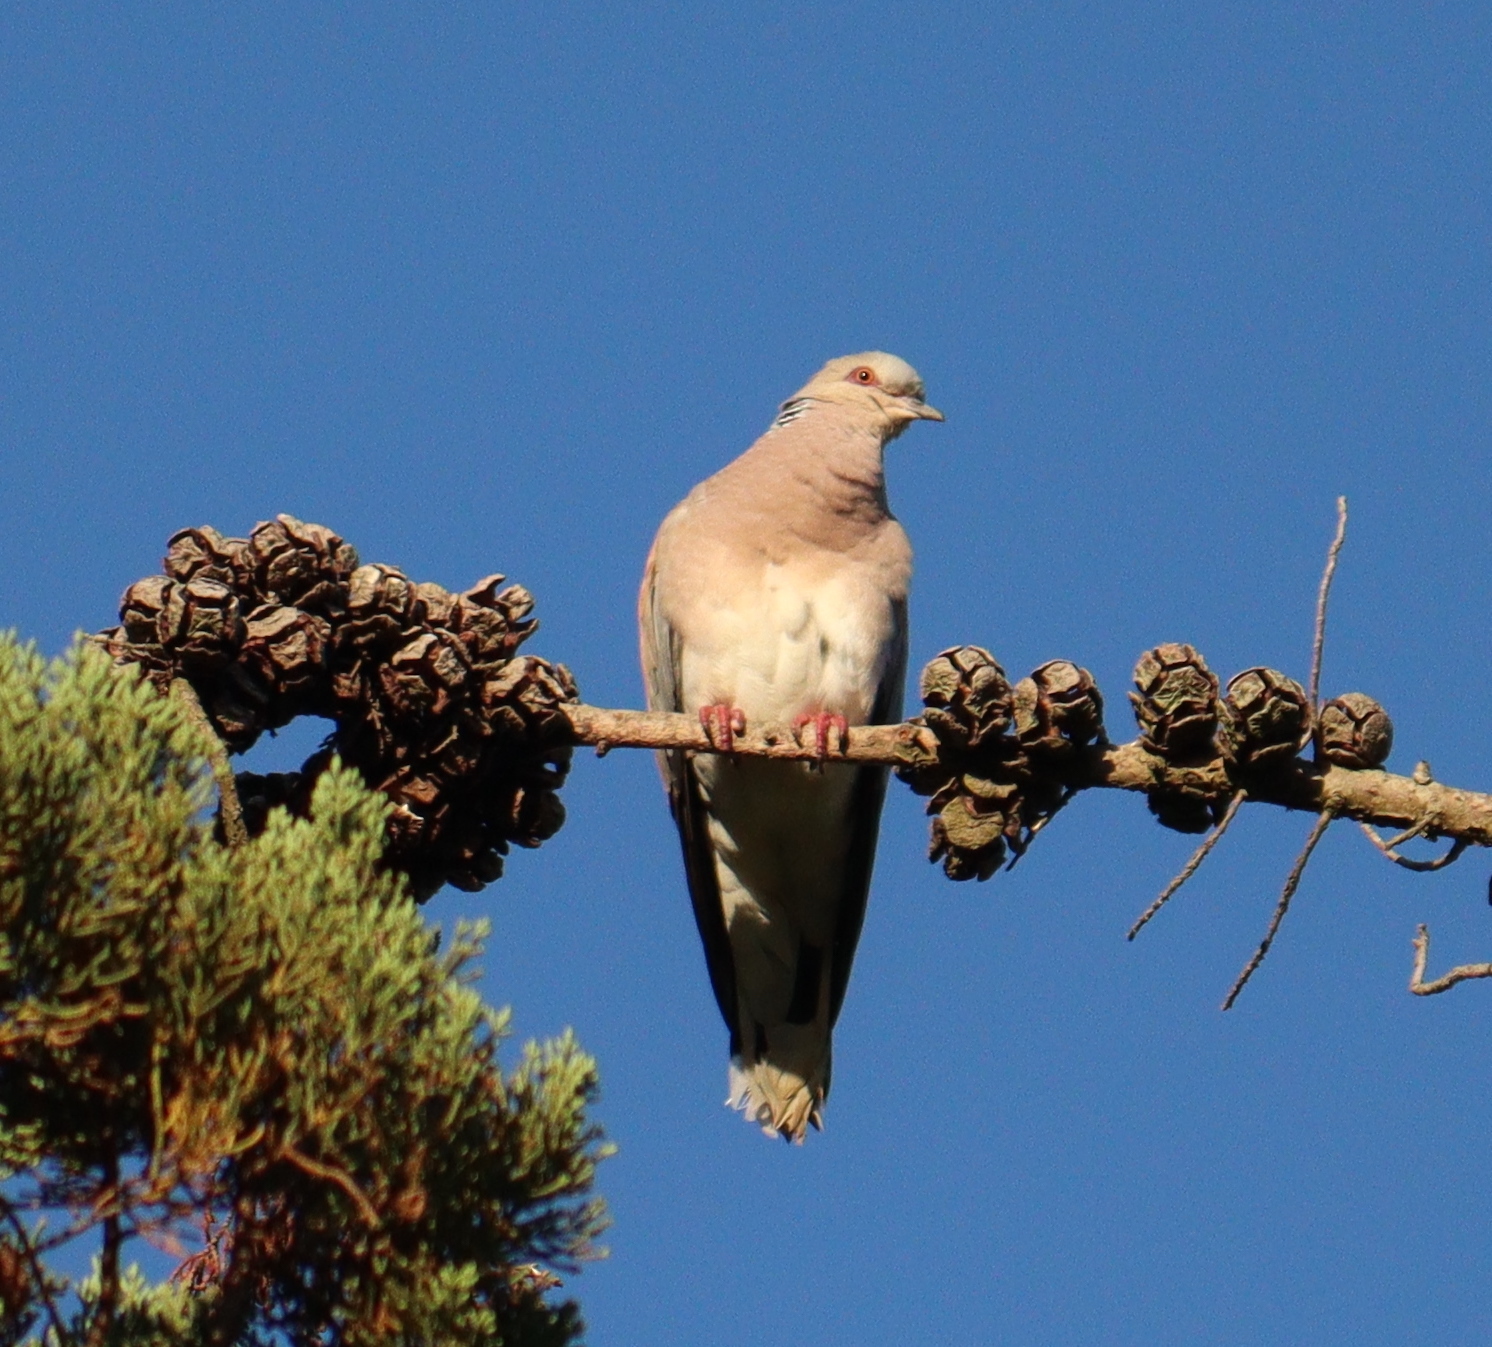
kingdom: Animalia
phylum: Chordata
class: Aves
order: Columbiformes
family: Columbidae
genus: Streptopelia
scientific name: Streptopelia turtur
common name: European turtle dove
